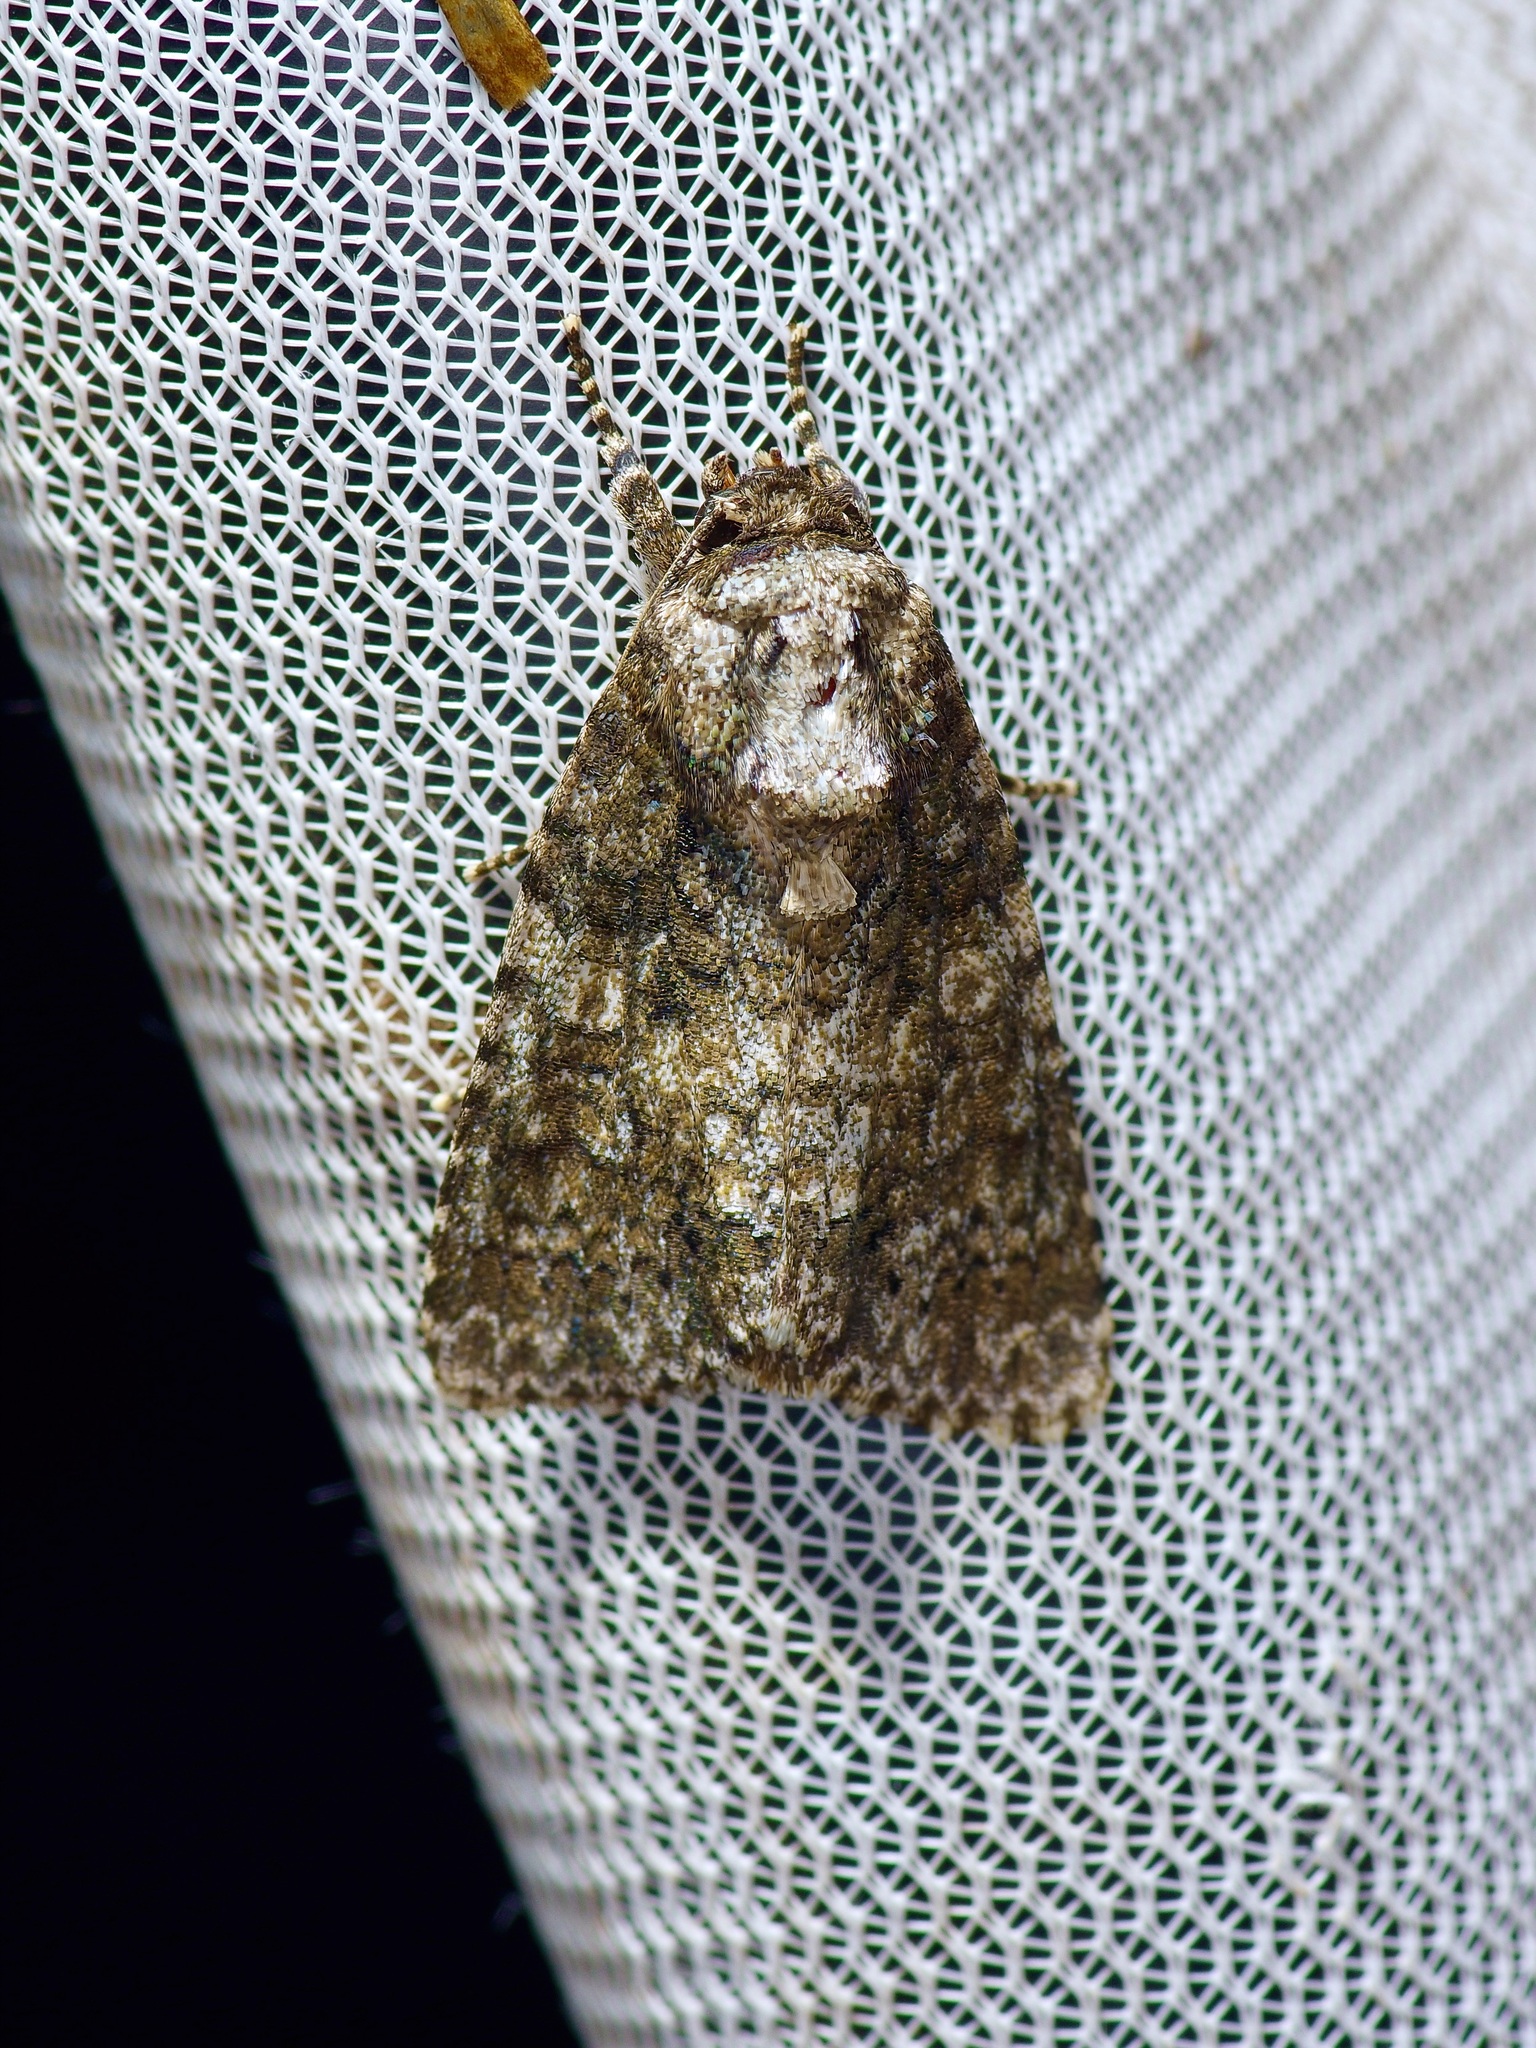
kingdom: Animalia
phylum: Arthropoda
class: Insecta
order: Lepidoptera
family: Noctuidae
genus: Acronicta
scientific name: Acronicta afflicta
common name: Afflicted dagger moth
